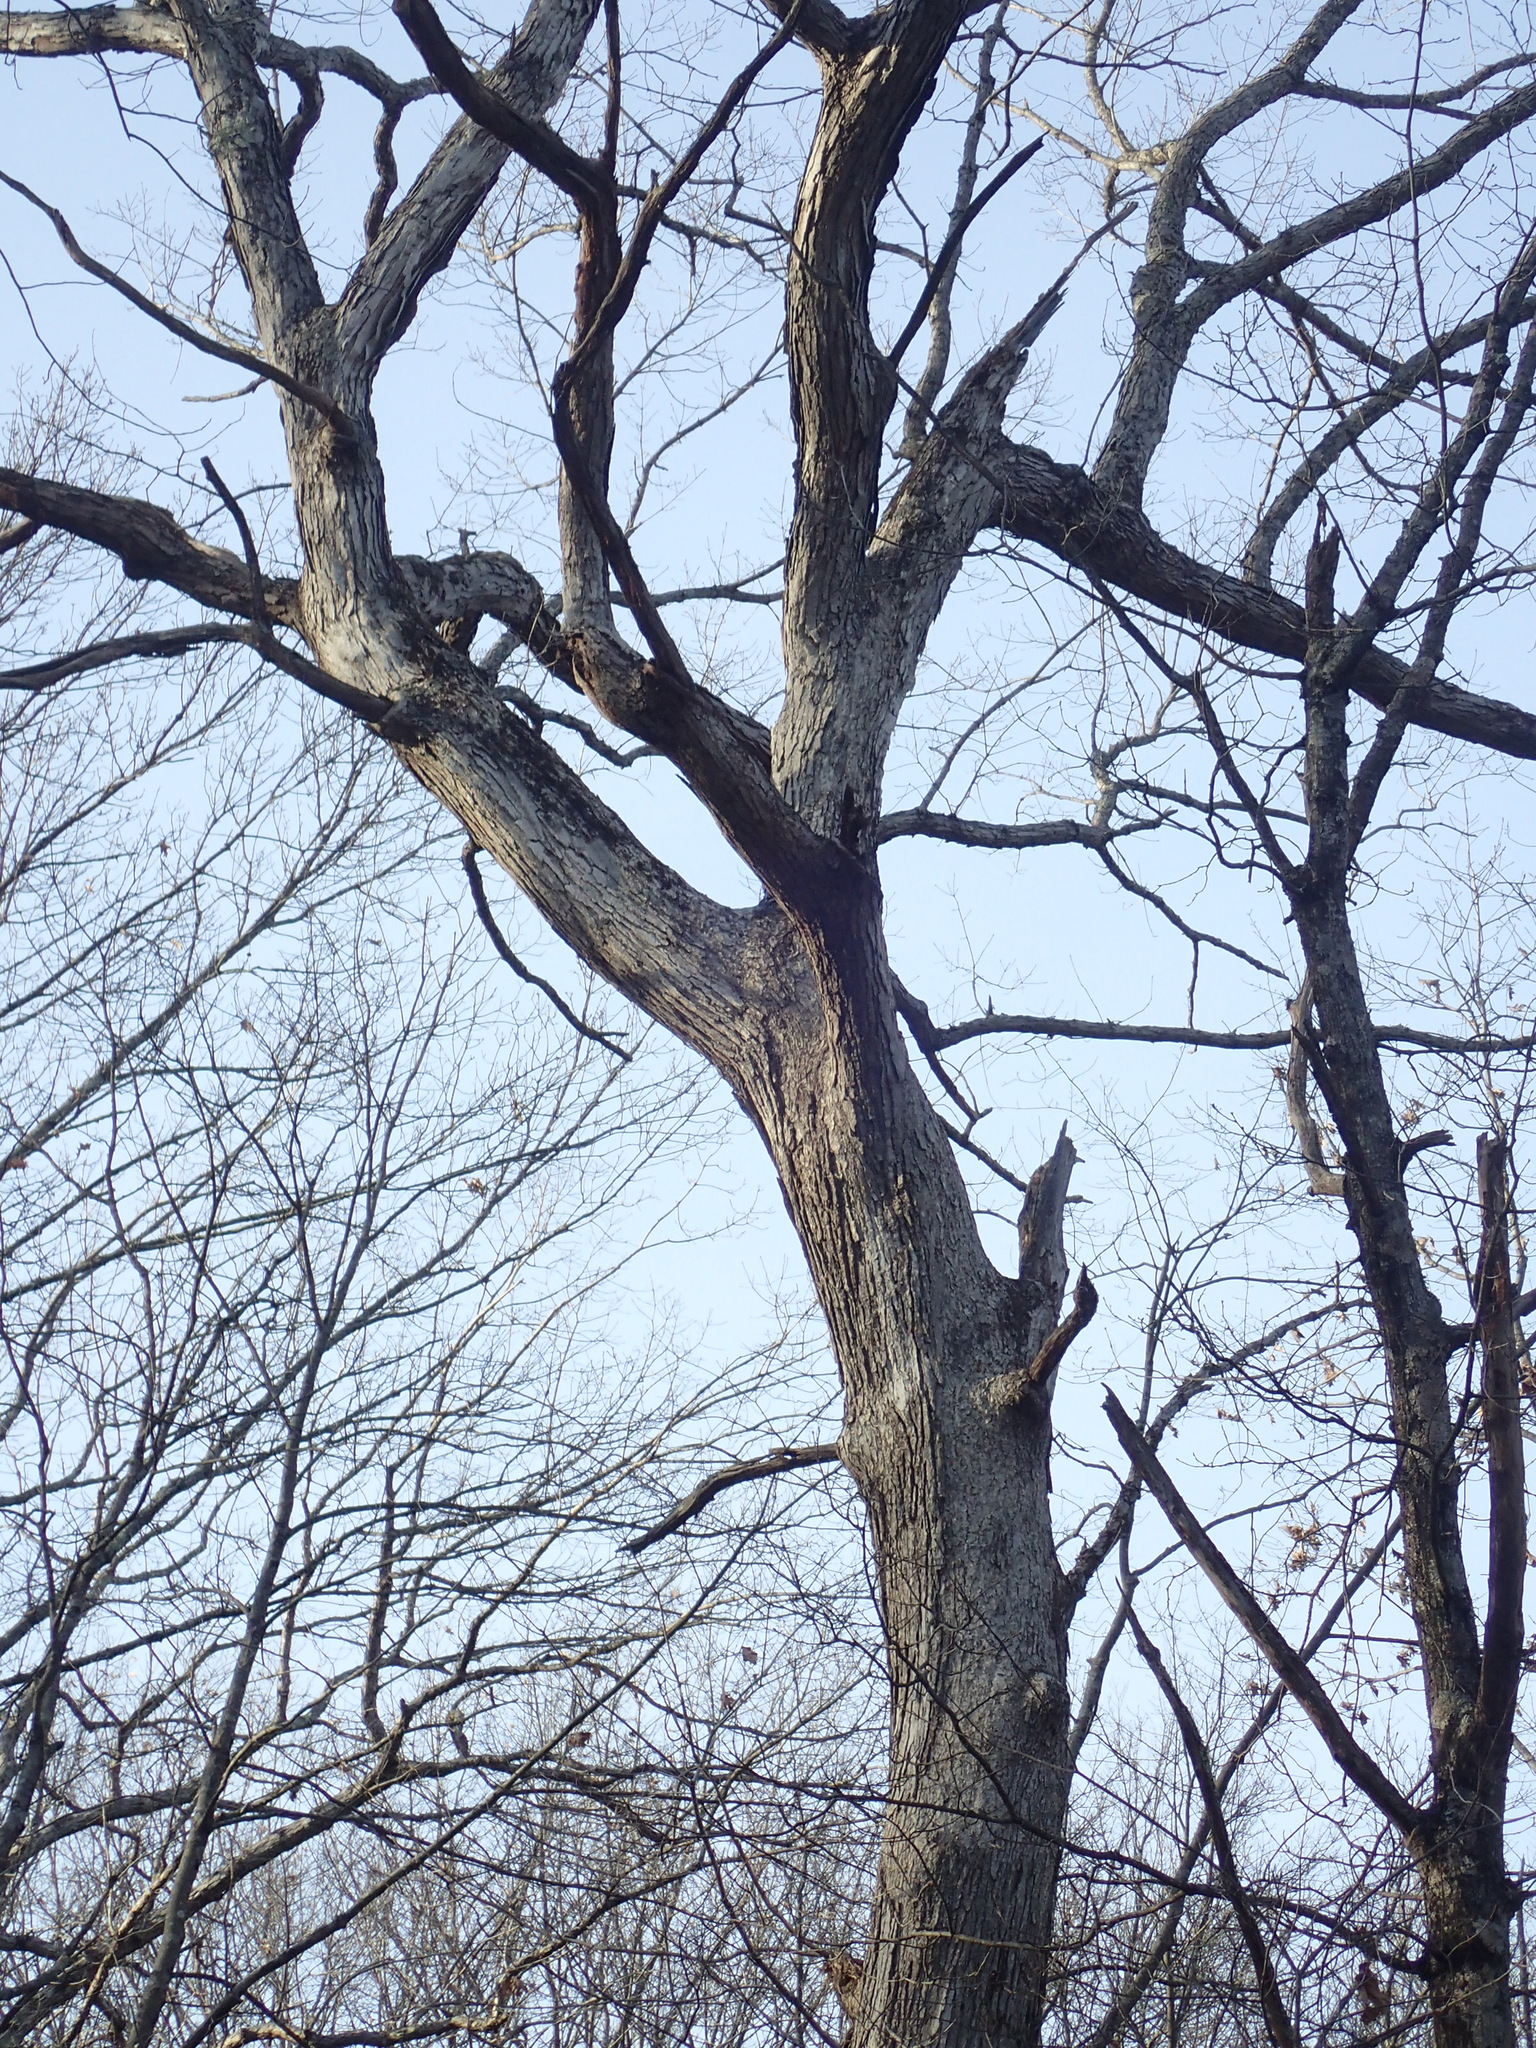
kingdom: Plantae
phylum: Tracheophyta
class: Magnoliopsida
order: Fagales
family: Fagaceae
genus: Quercus
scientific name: Quercus alba
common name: White oak
